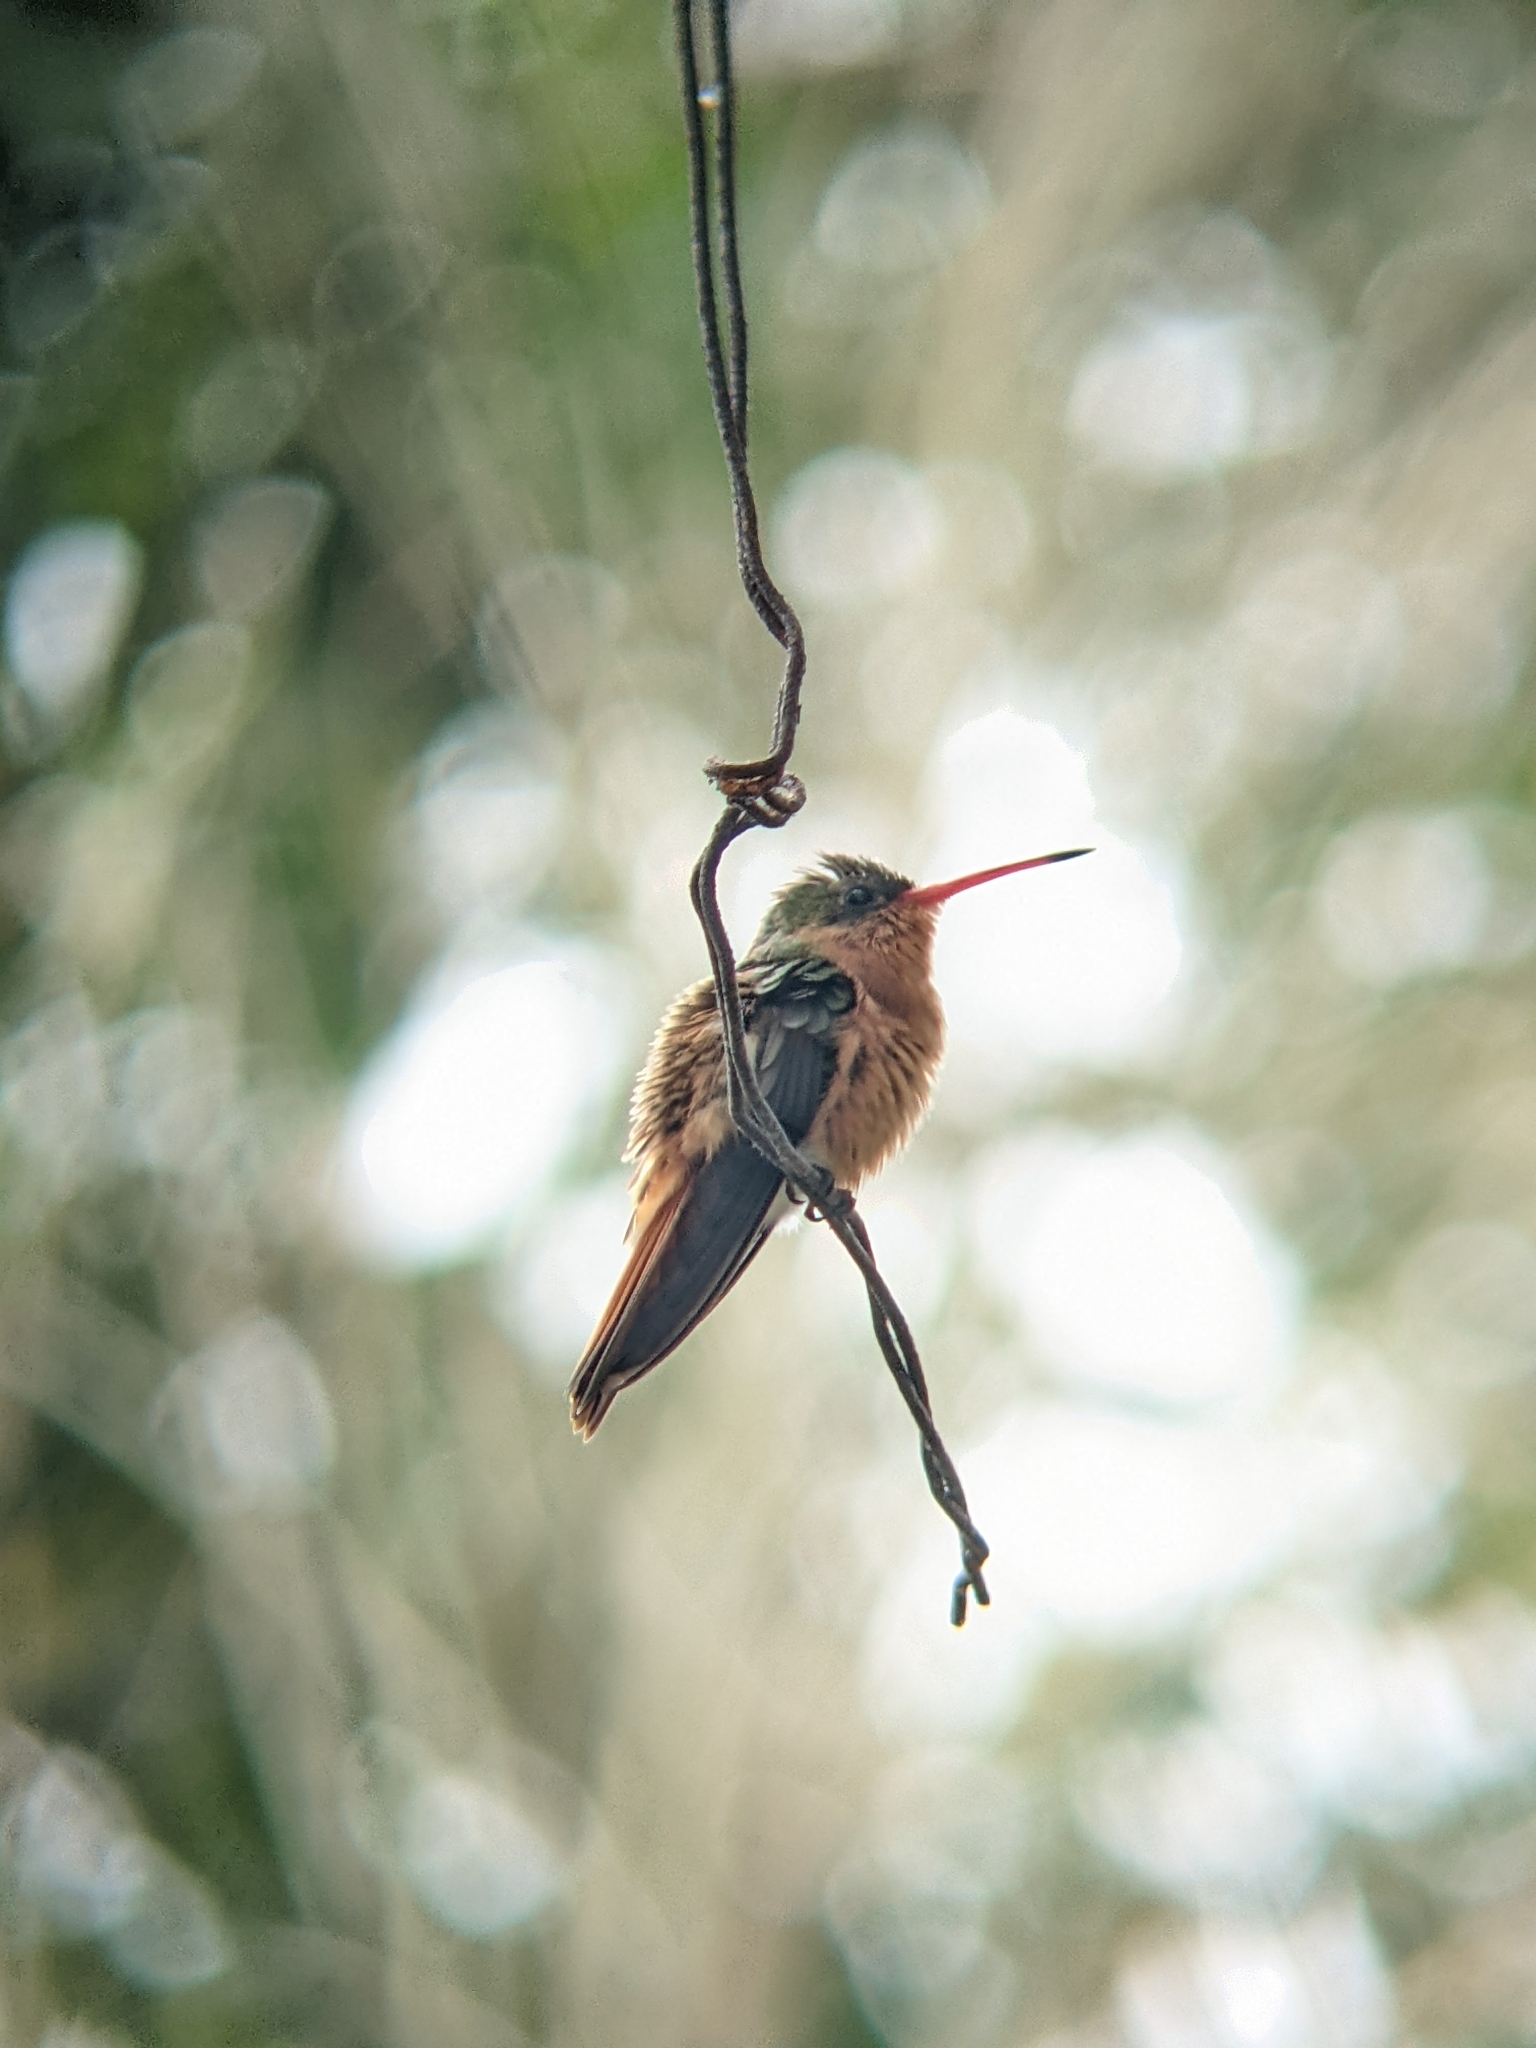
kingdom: Animalia
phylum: Chordata
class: Aves
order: Apodiformes
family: Trochilidae
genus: Amazilia
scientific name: Amazilia rutila
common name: Cinnamon hummingbird
